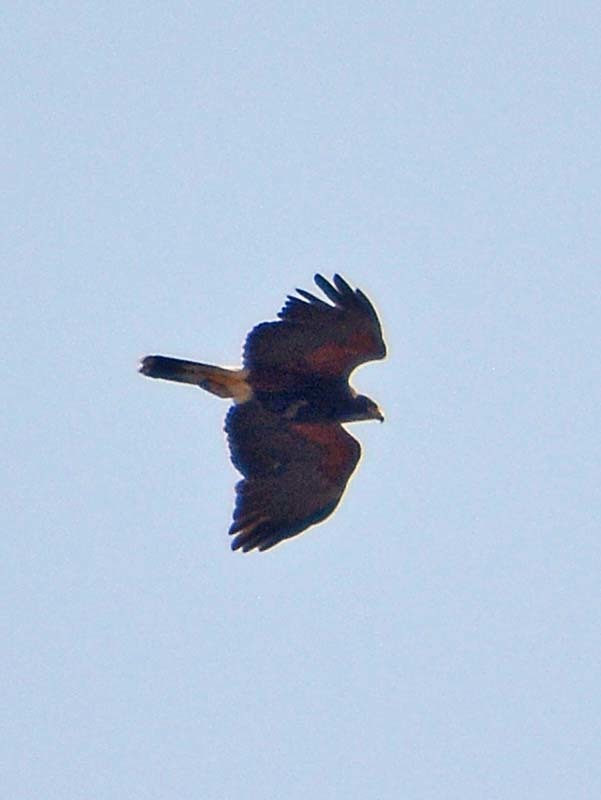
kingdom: Animalia
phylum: Chordata
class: Aves
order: Accipitriformes
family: Accipitridae
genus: Parabuteo
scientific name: Parabuteo unicinctus
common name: Harris's hawk
